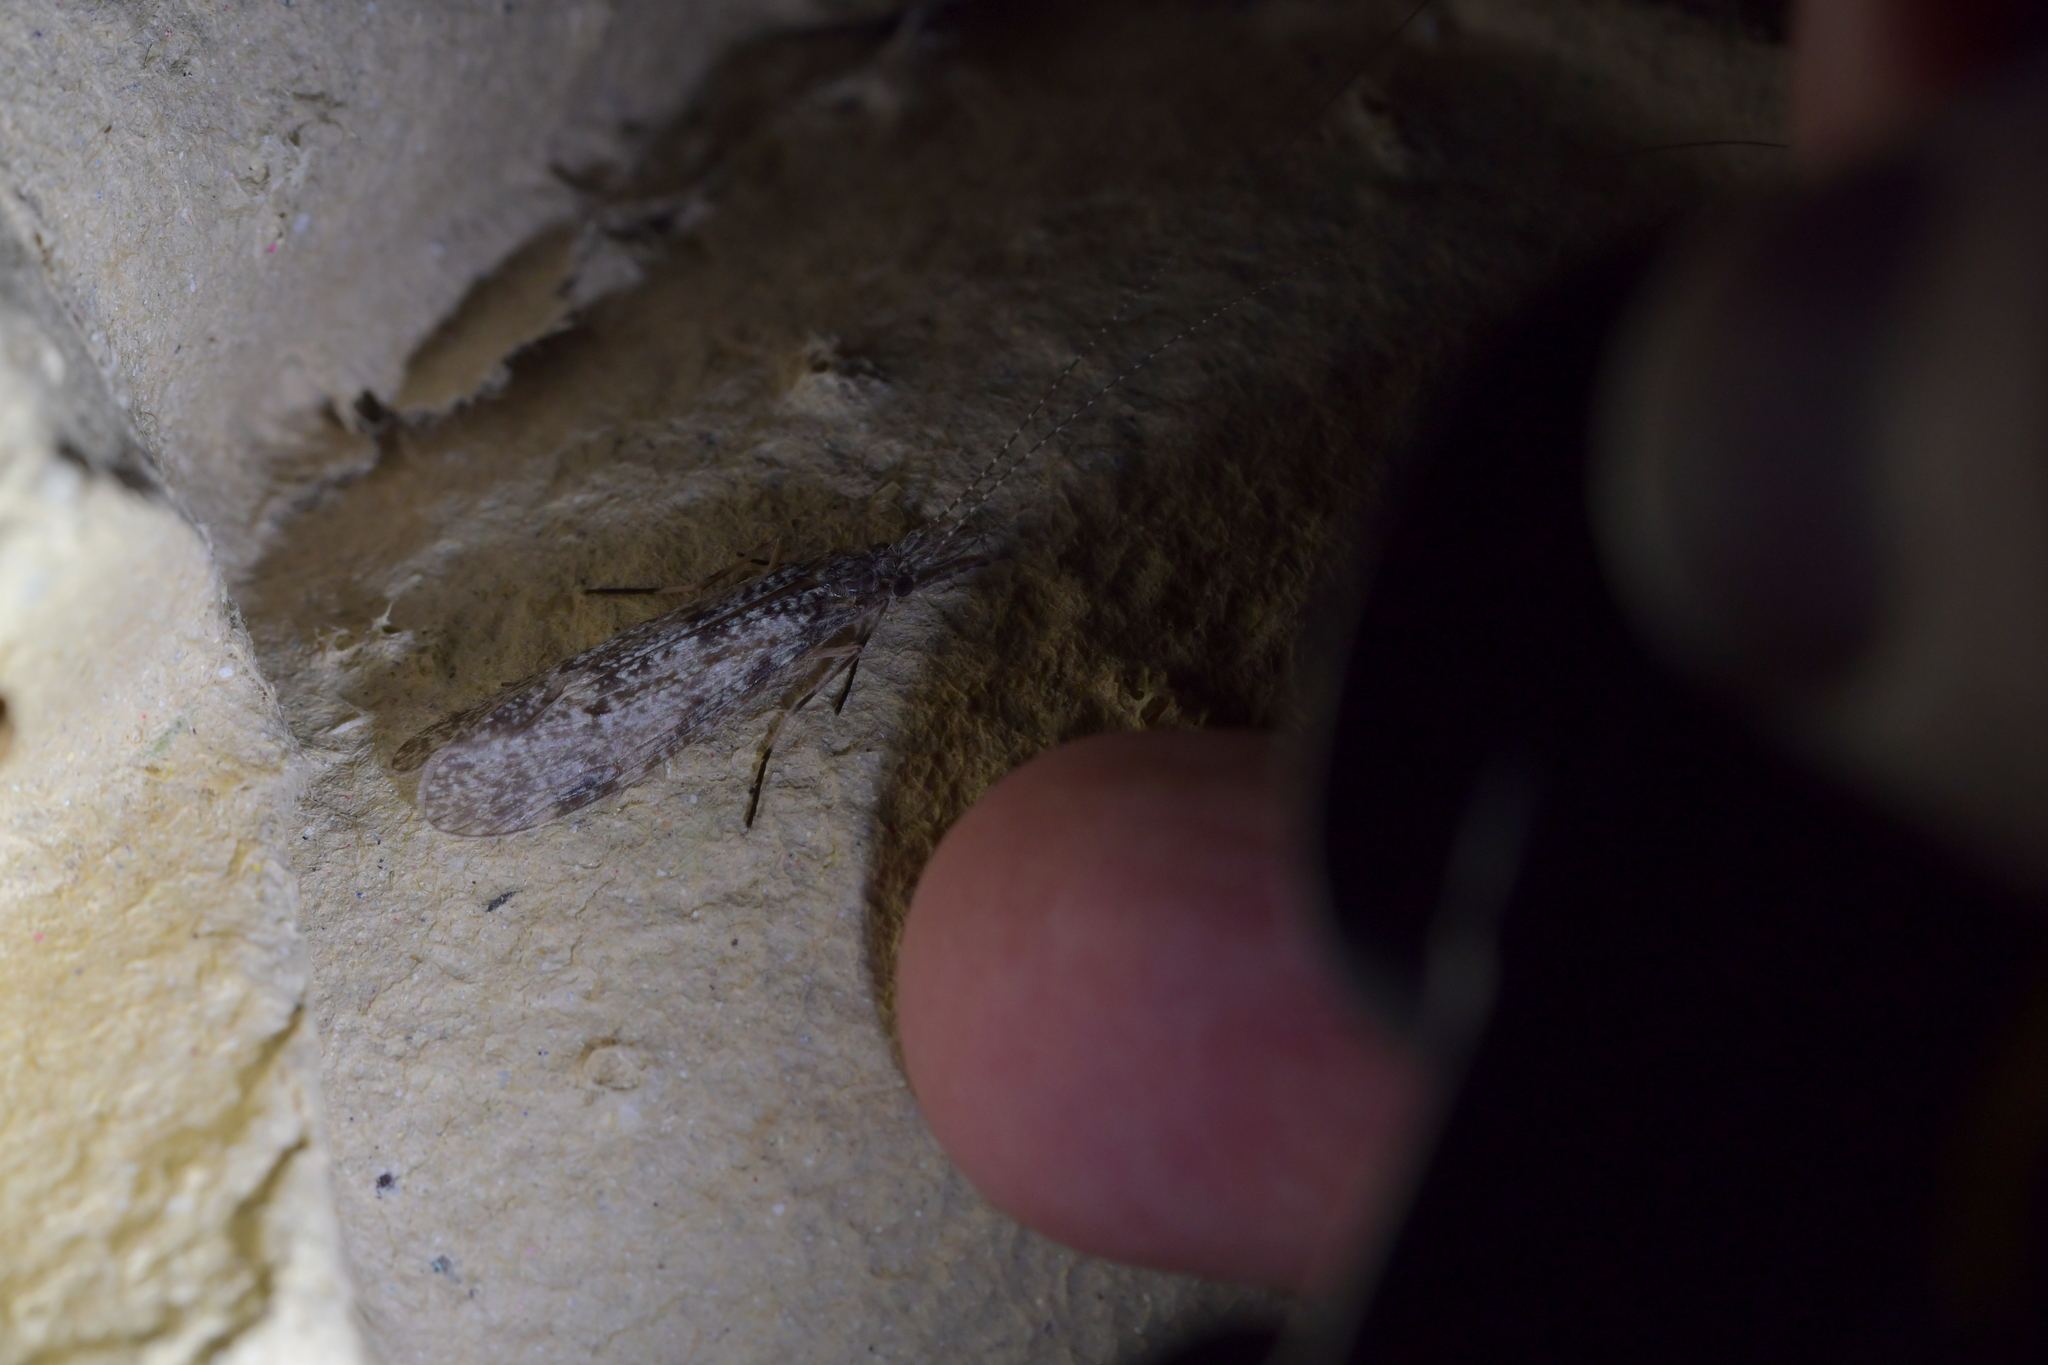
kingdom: Animalia
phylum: Arthropoda
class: Insecta
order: Trichoptera
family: Leptoceridae
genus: Triplectides
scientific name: Triplectides cephalotes
